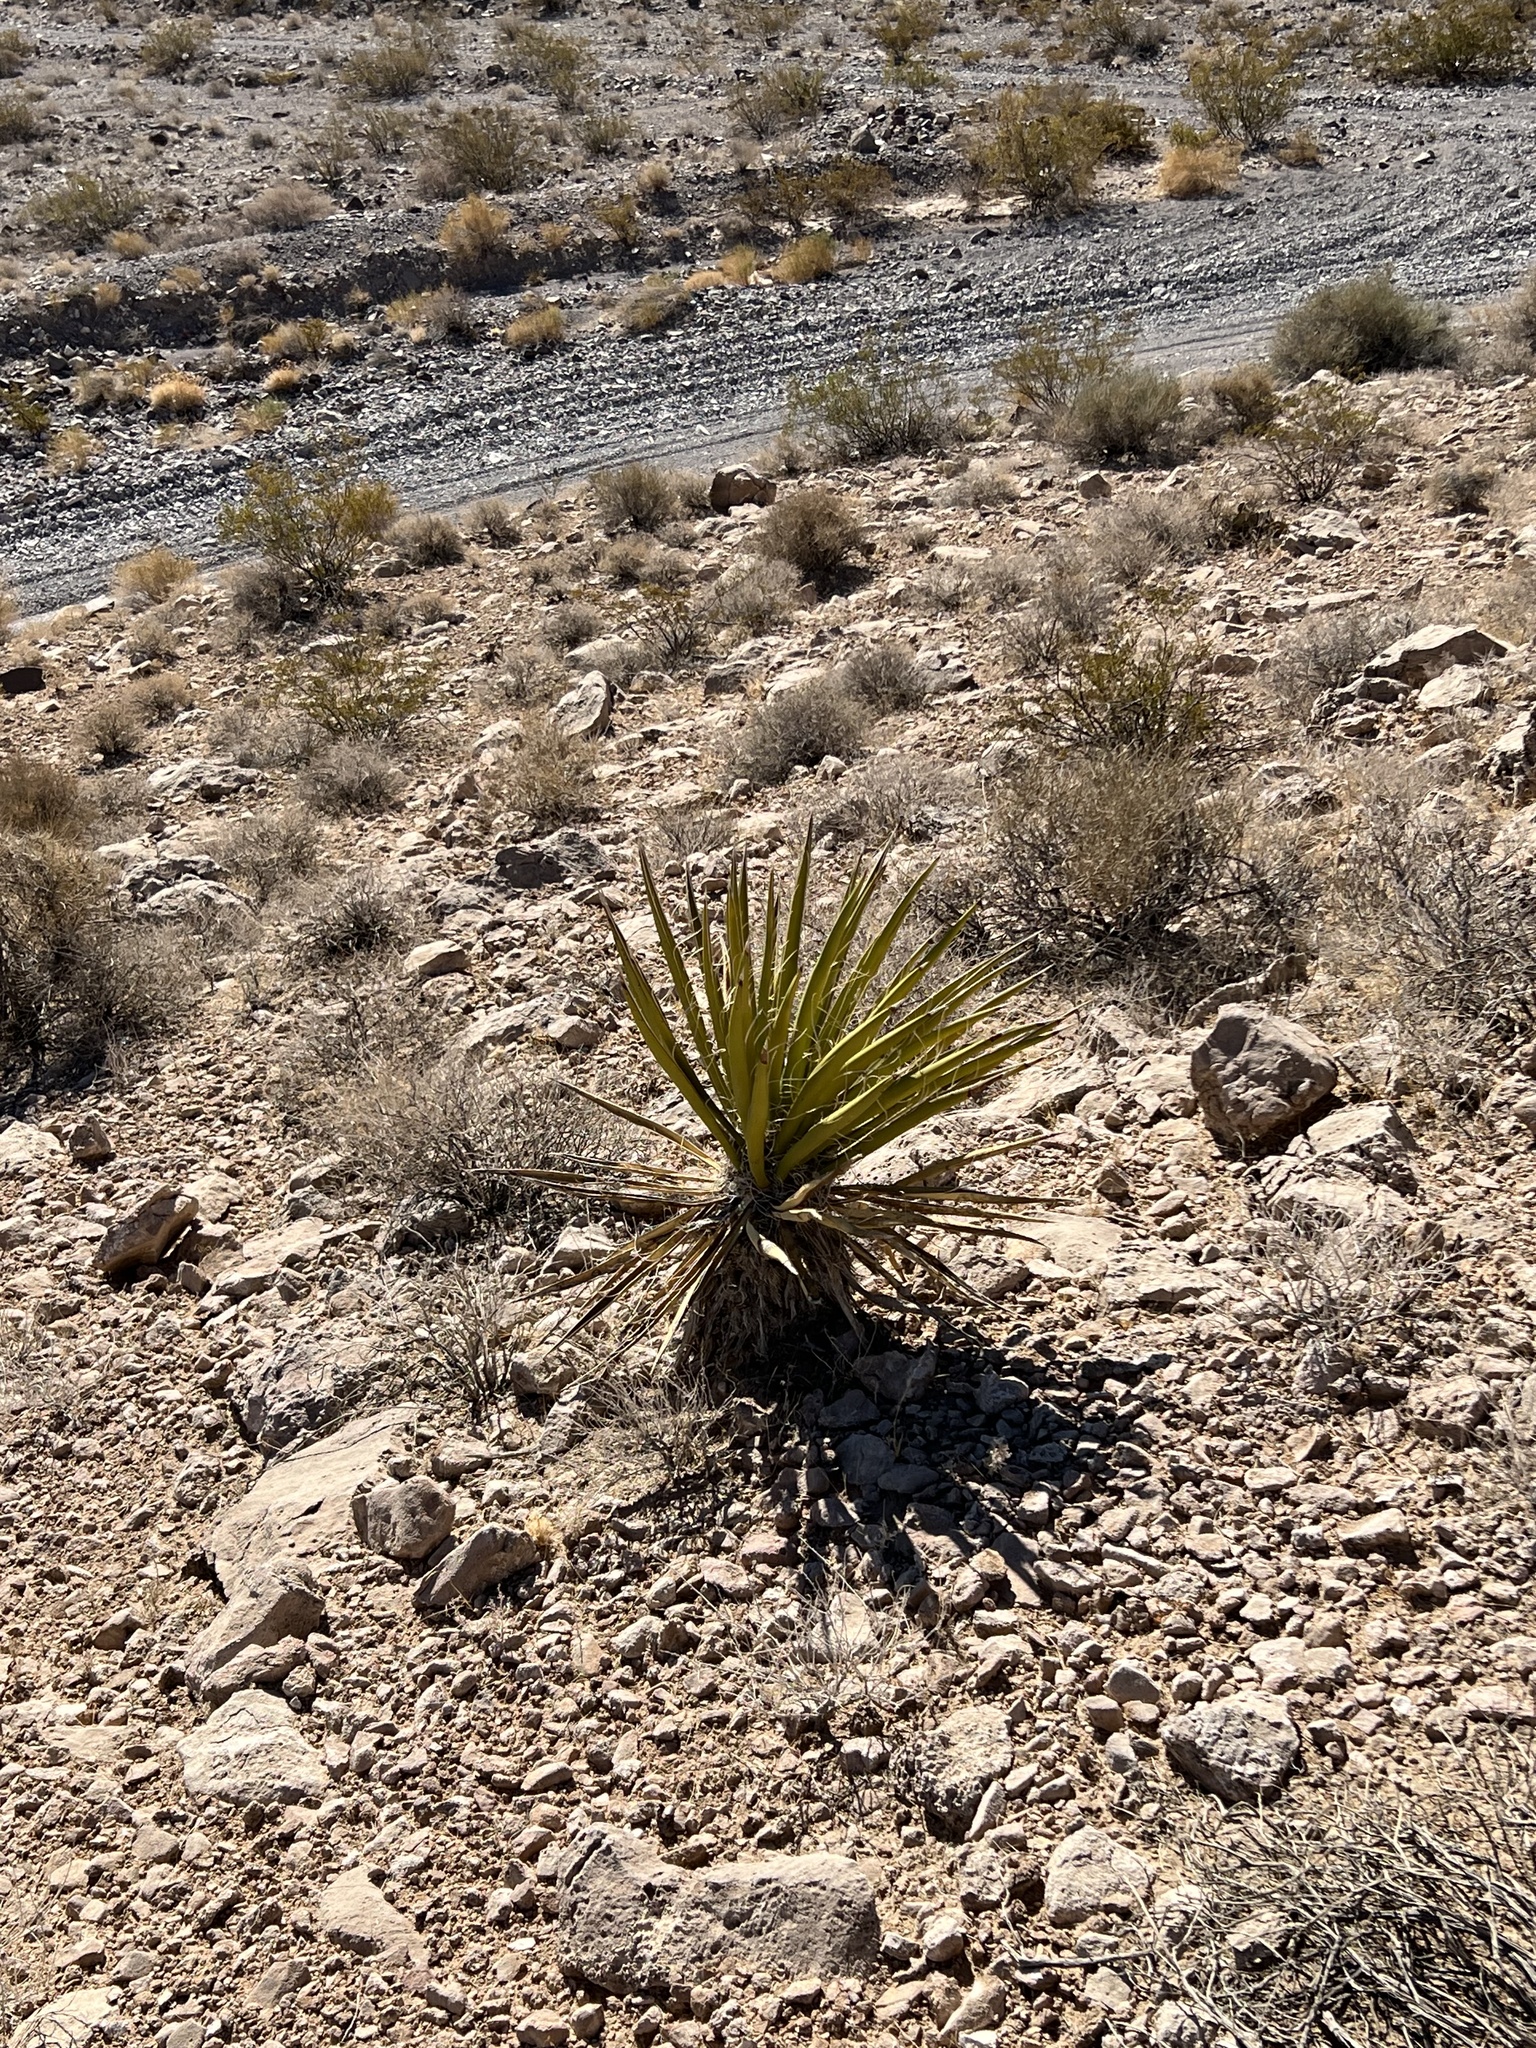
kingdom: Plantae
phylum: Tracheophyta
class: Liliopsida
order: Asparagales
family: Asparagaceae
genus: Yucca
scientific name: Yucca schidigera
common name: Mojave yucca
